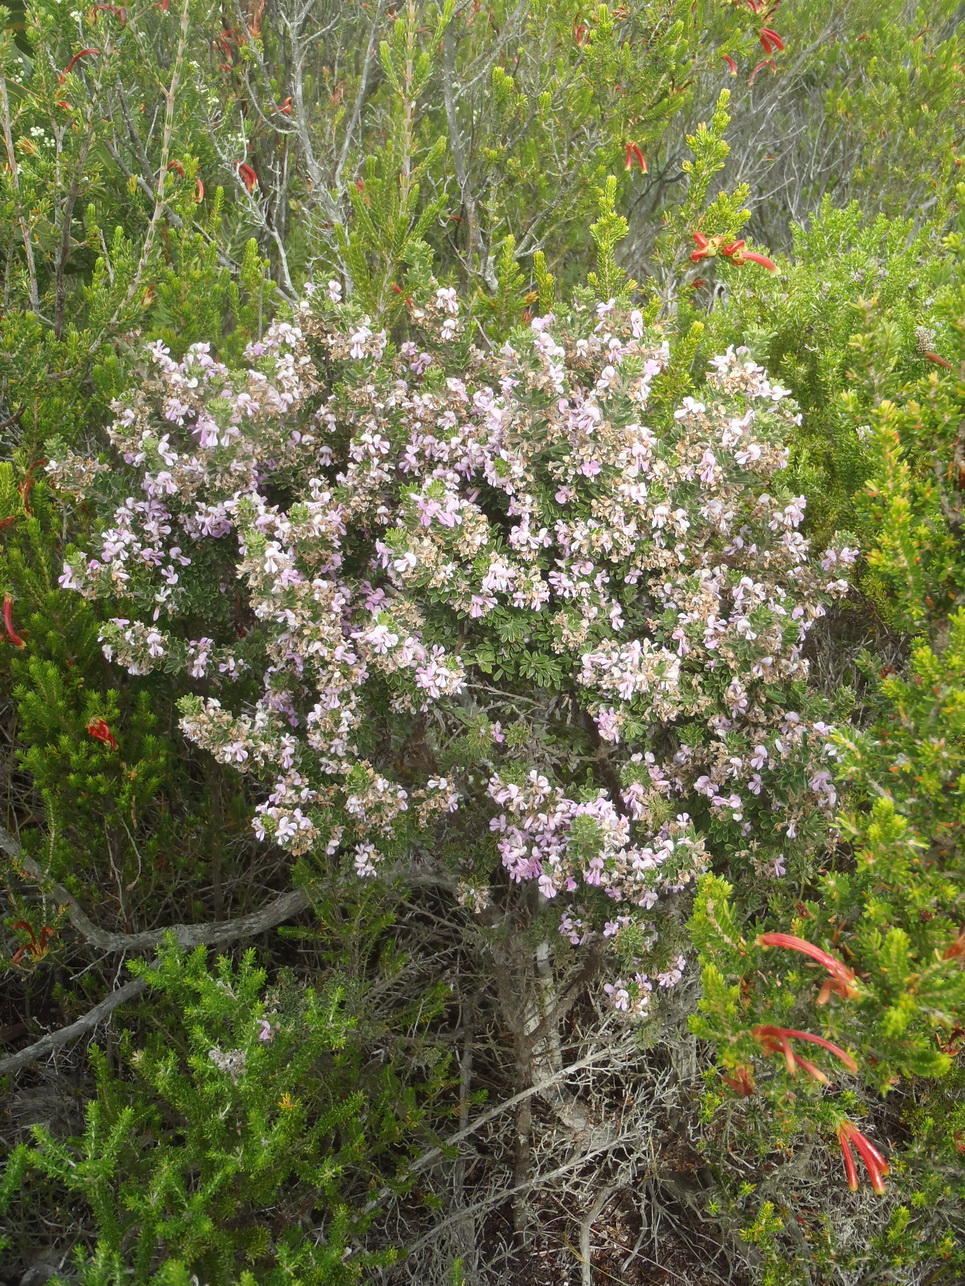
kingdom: Plantae
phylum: Tracheophyta
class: Magnoliopsida
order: Fabales
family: Fabaceae
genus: Indigofera
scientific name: Indigofera flabellata
